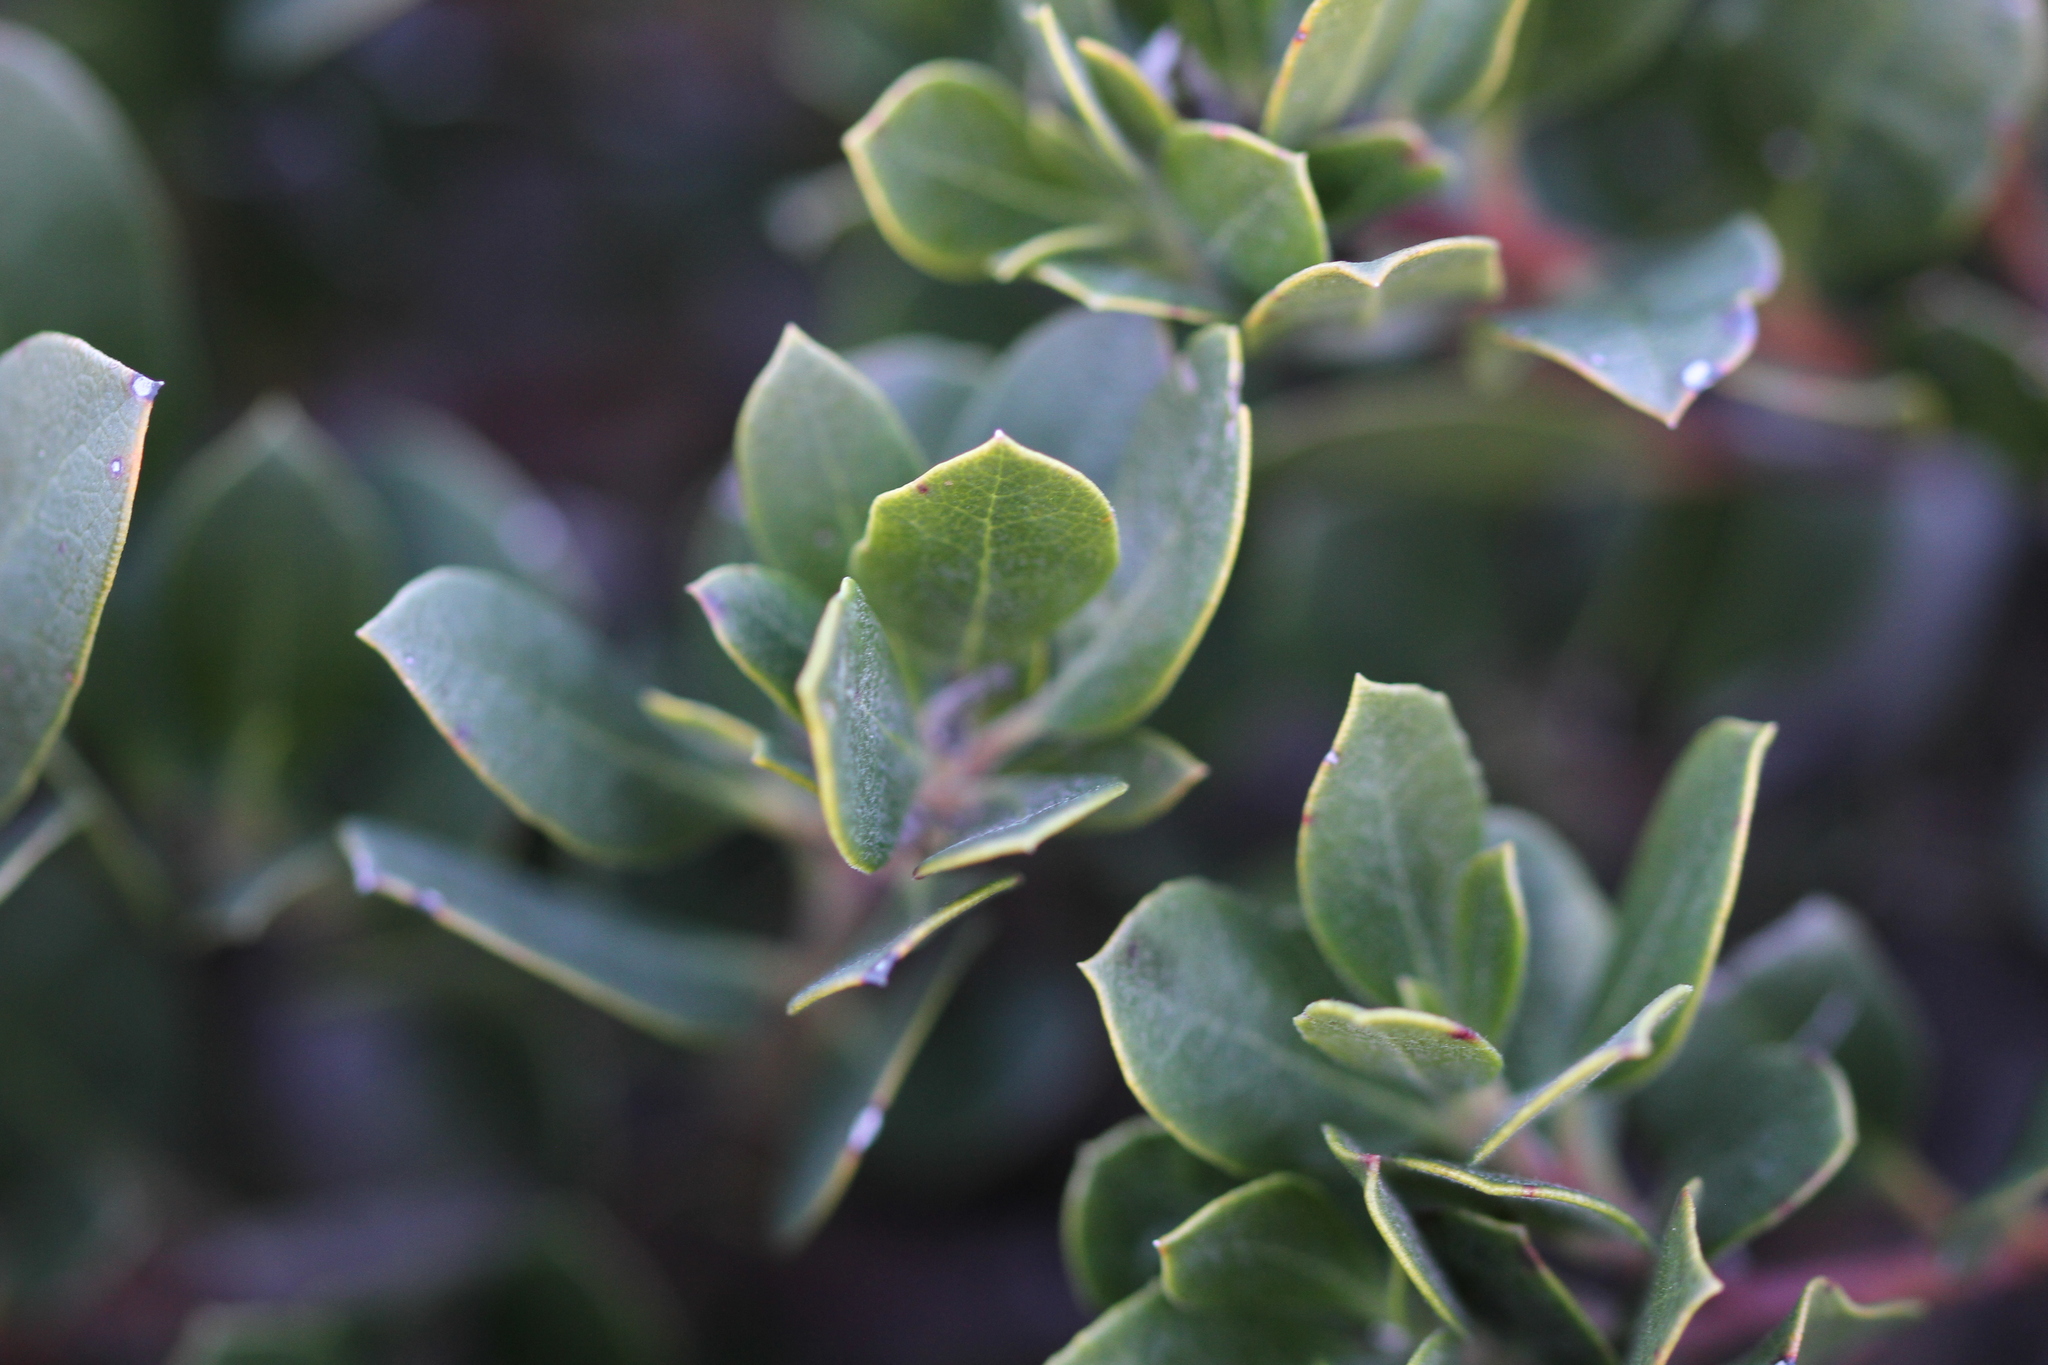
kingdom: Plantae
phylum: Tracheophyta
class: Magnoliopsida
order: Ericales
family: Ericaceae
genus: Arctostaphylos
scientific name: Arctostaphylos pacifica
